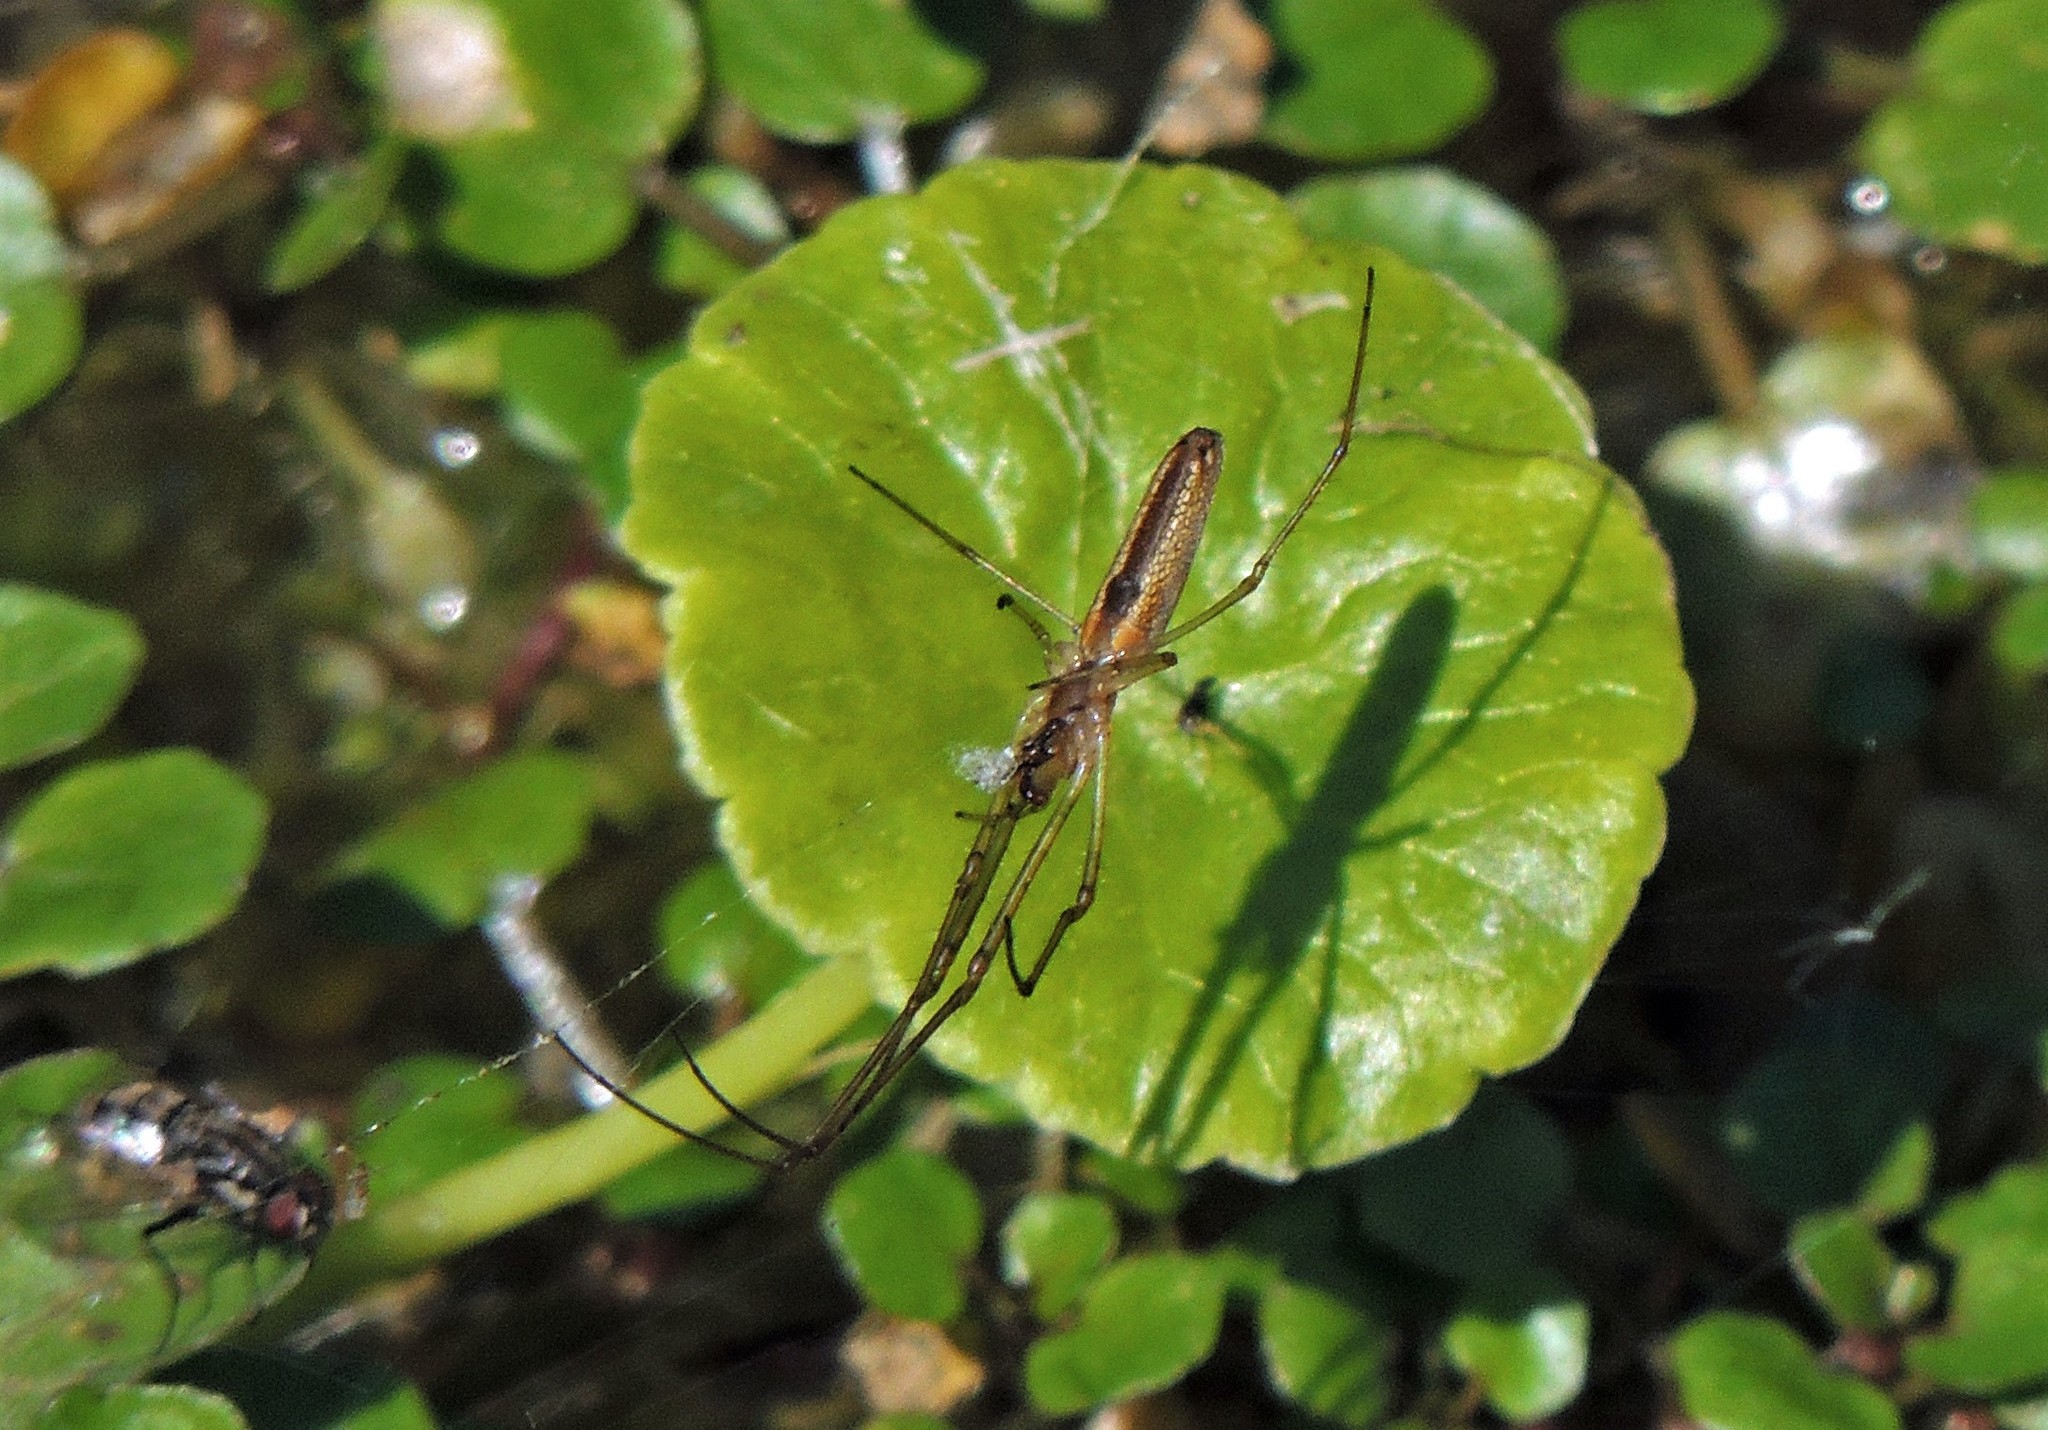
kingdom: Animalia
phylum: Arthropoda
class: Arachnida
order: Araneae
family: Tetragnathidae
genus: Tetragnatha
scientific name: Tetragnatha
